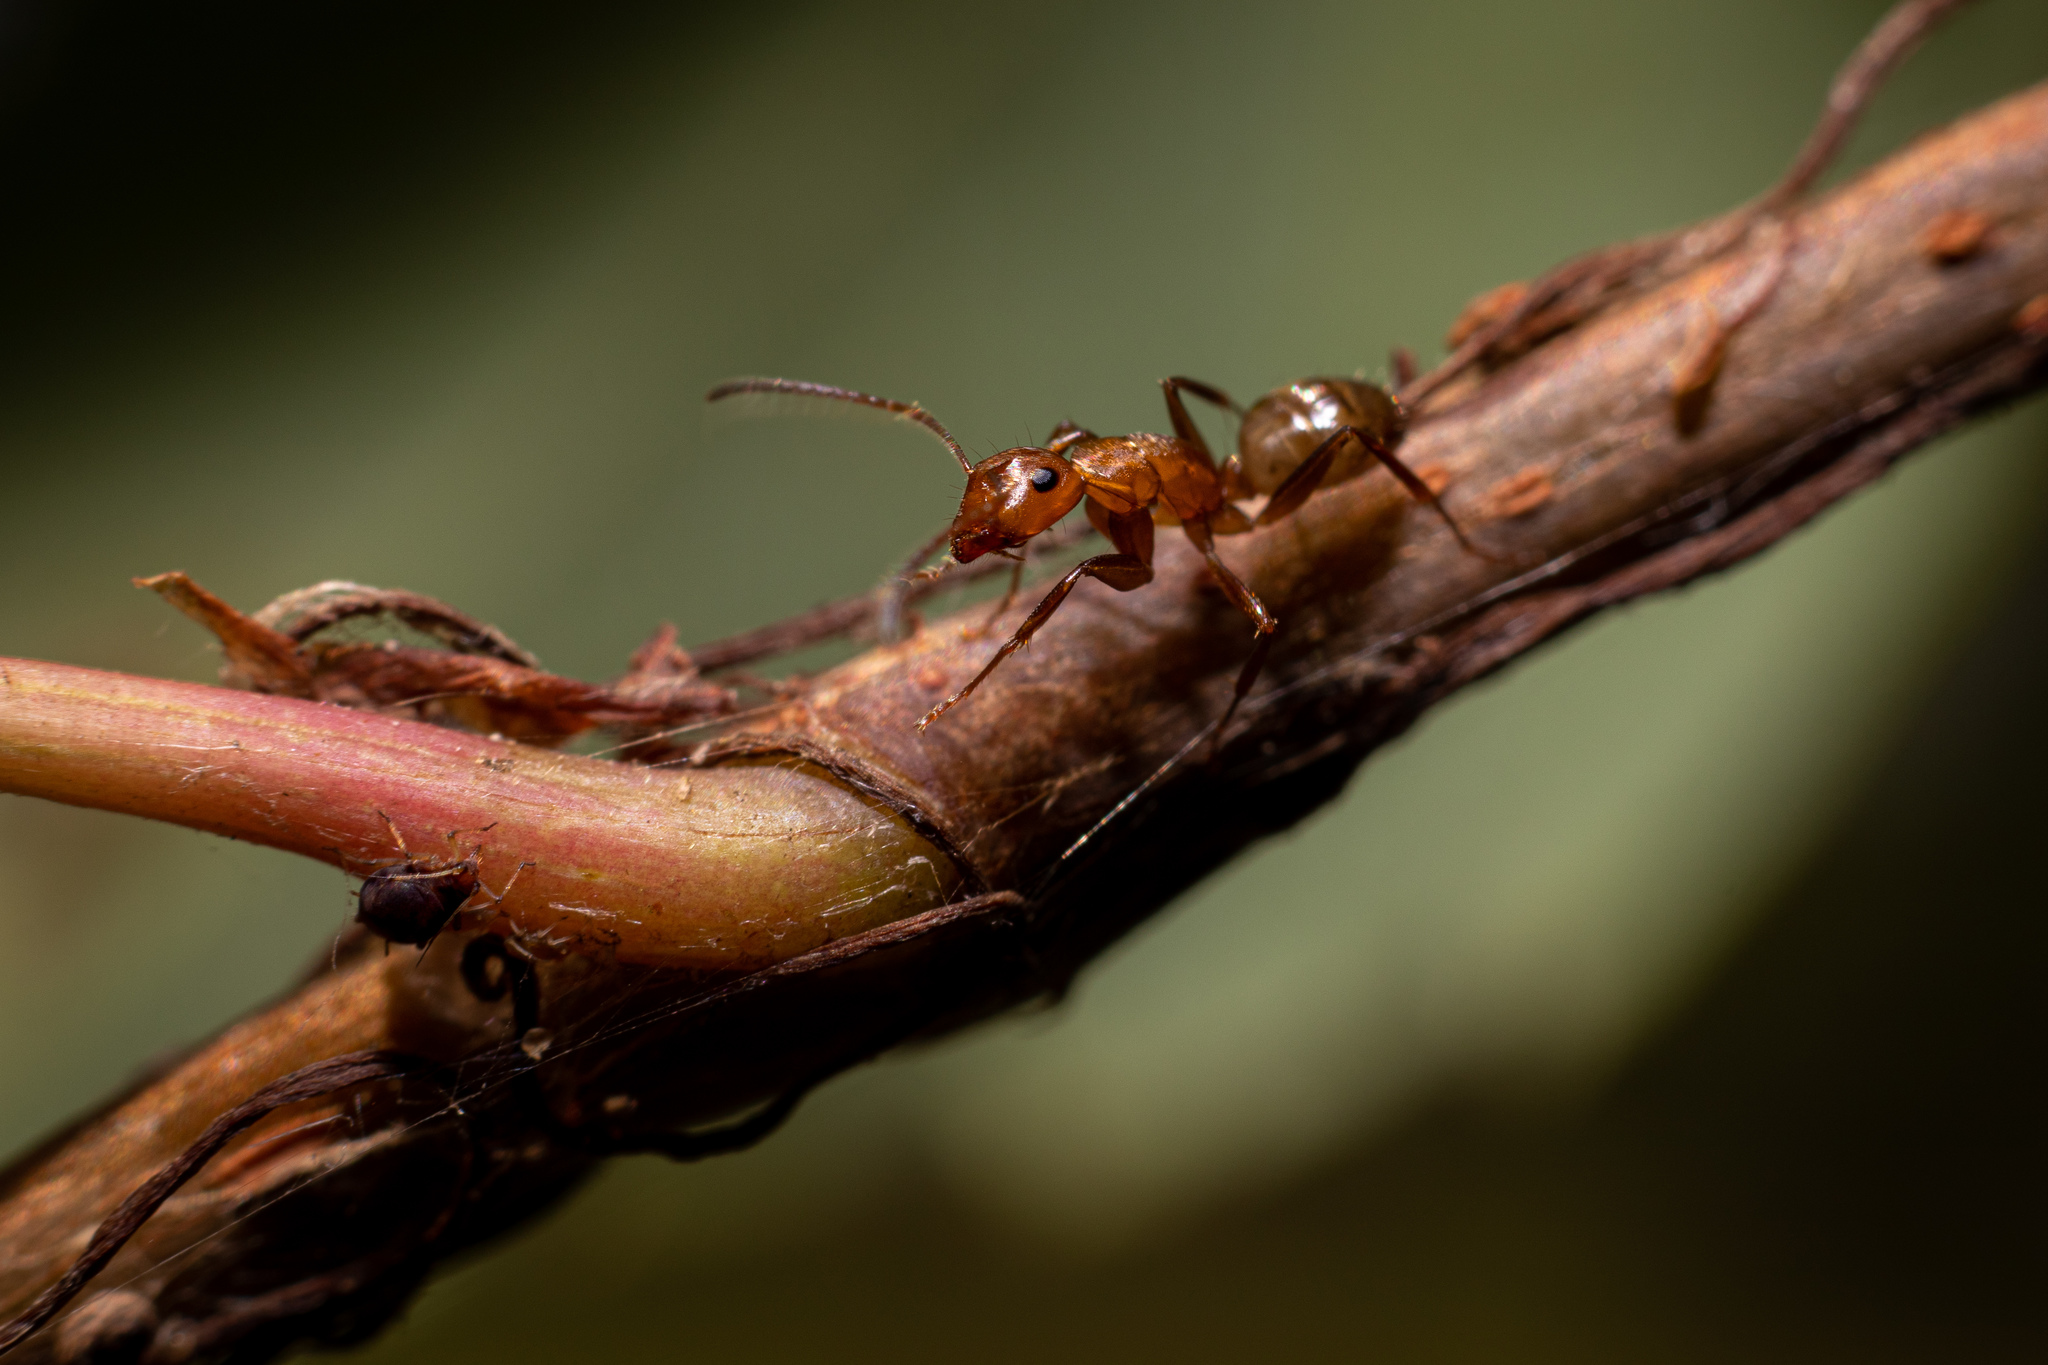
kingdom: Animalia
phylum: Arthropoda
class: Insecta
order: Hymenoptera
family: Formicidae
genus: Camponotus
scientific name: Camponotus snellingi
